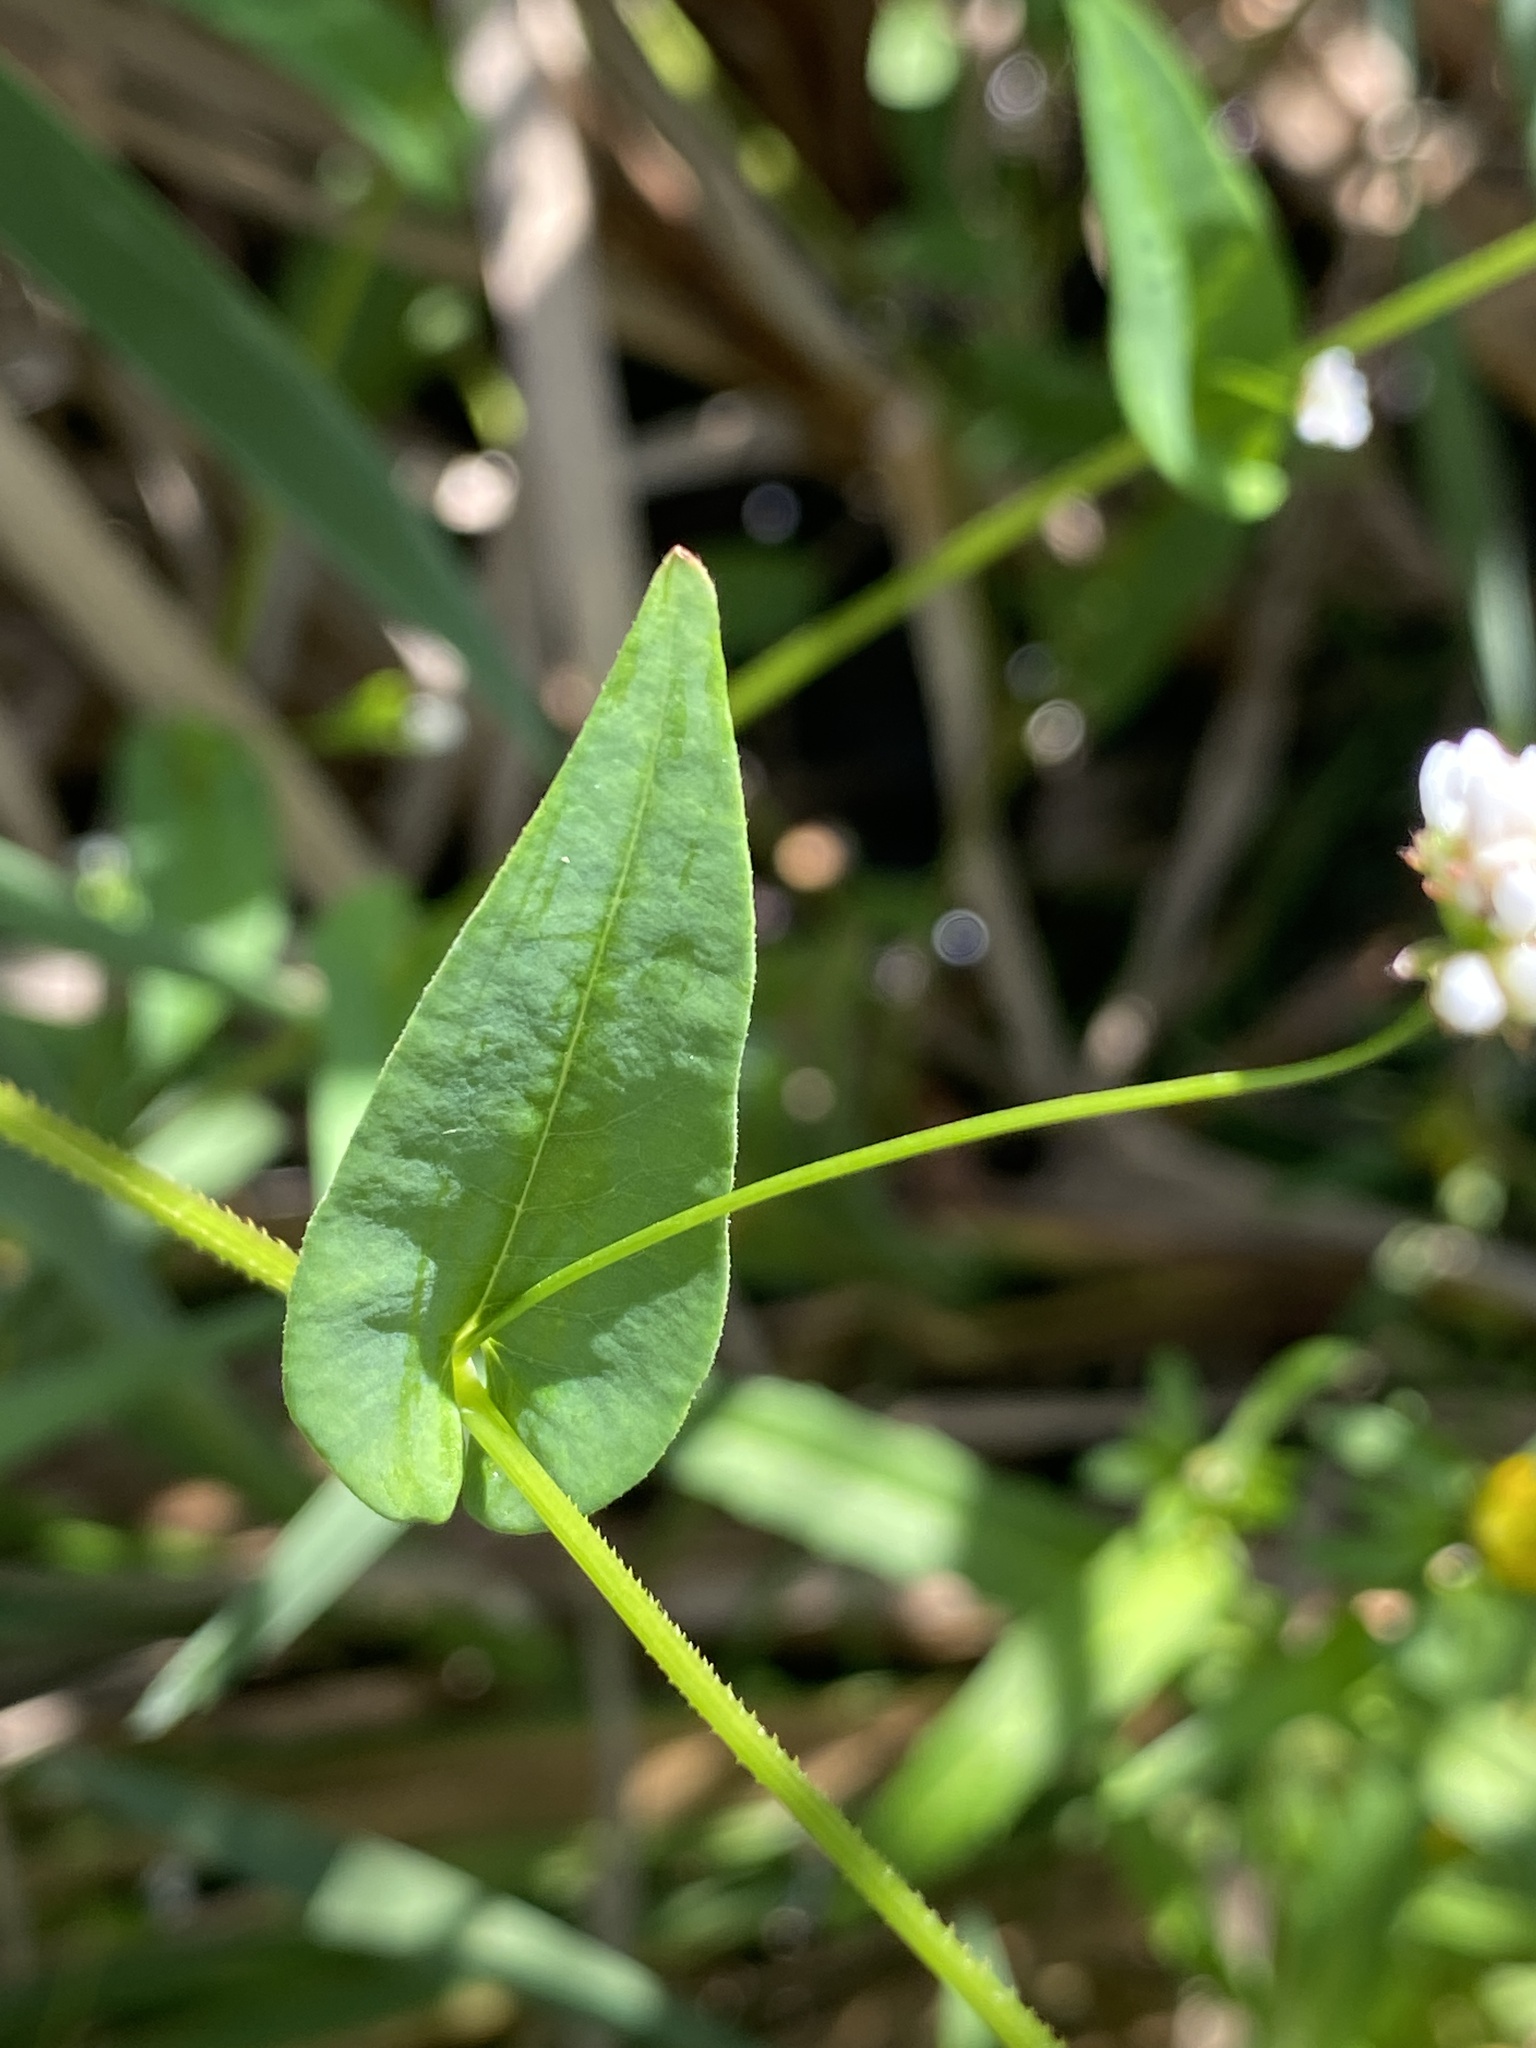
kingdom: Plantae
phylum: Tracheophyta
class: Magnoliopsida
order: Caryophyllales
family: Polygonaceae
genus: Persicaria
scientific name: Persicaria sagittata
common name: American tearthumb
